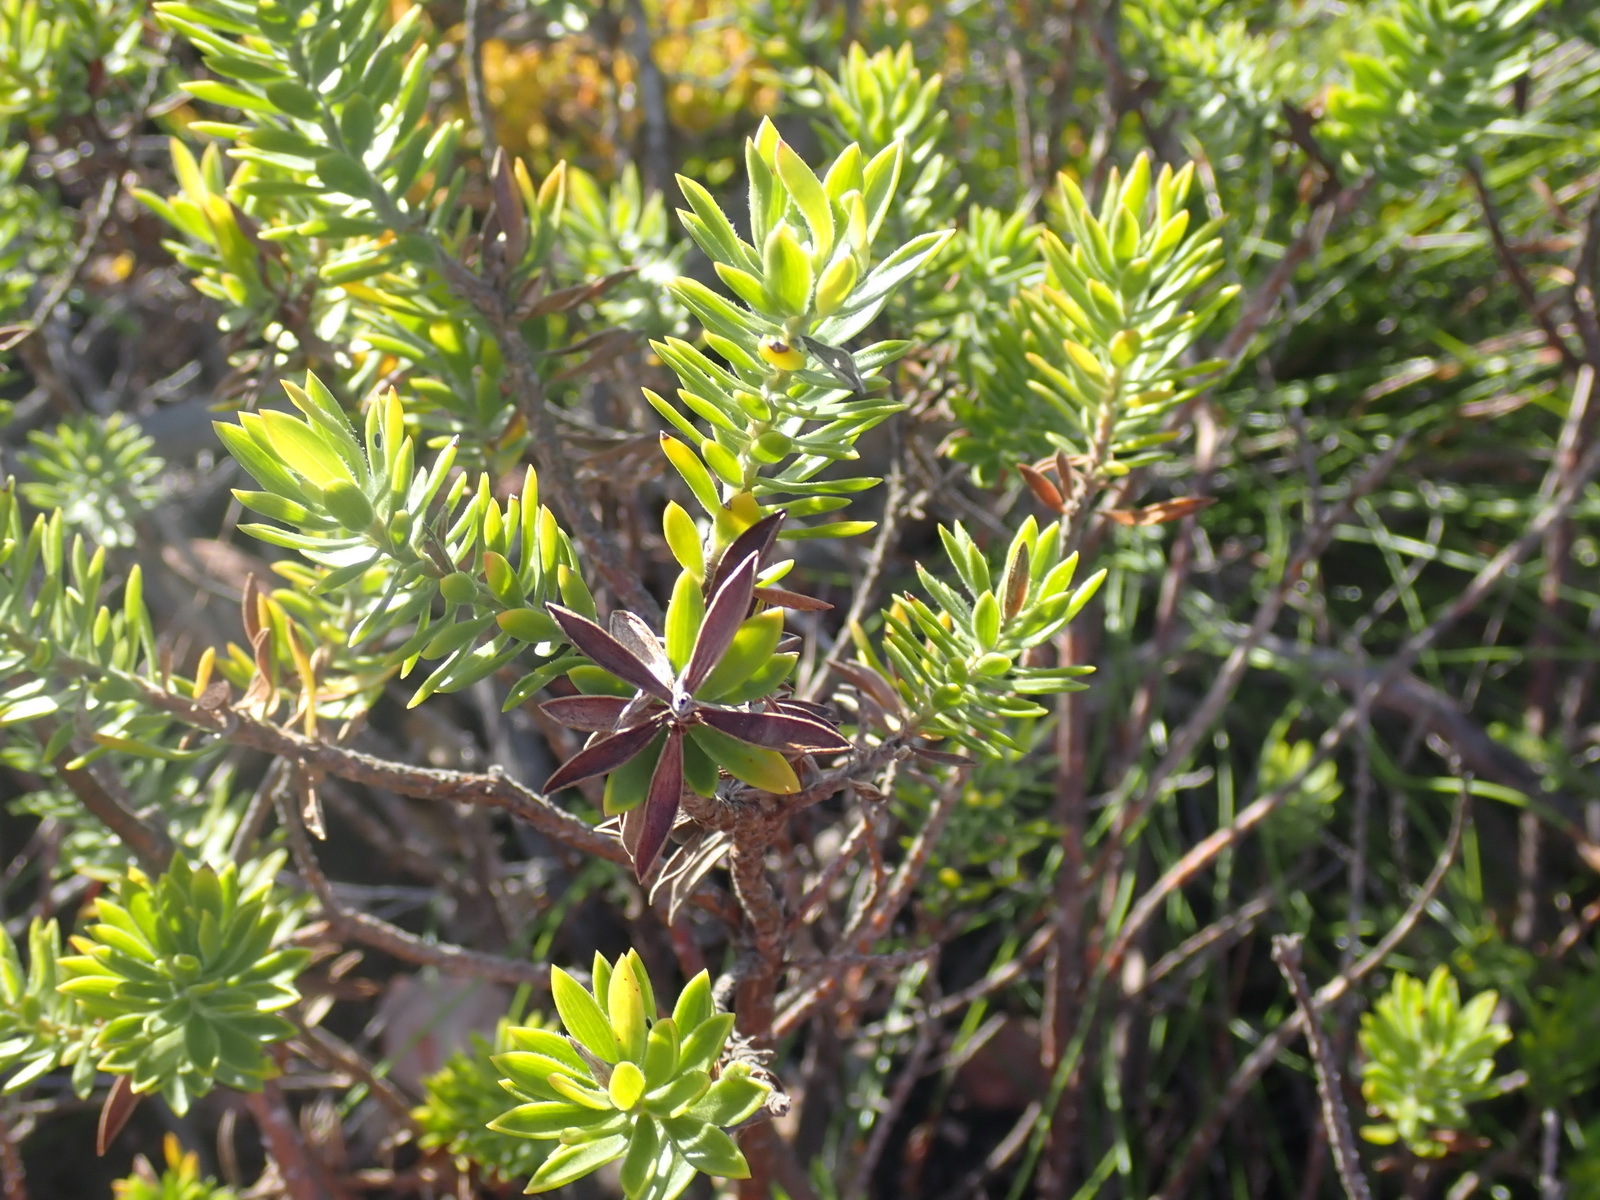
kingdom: Plantae
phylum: Tracheophyta
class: Magnoliopsida
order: Asterales
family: Asteraceae
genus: Oedera
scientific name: Oedera calycina
